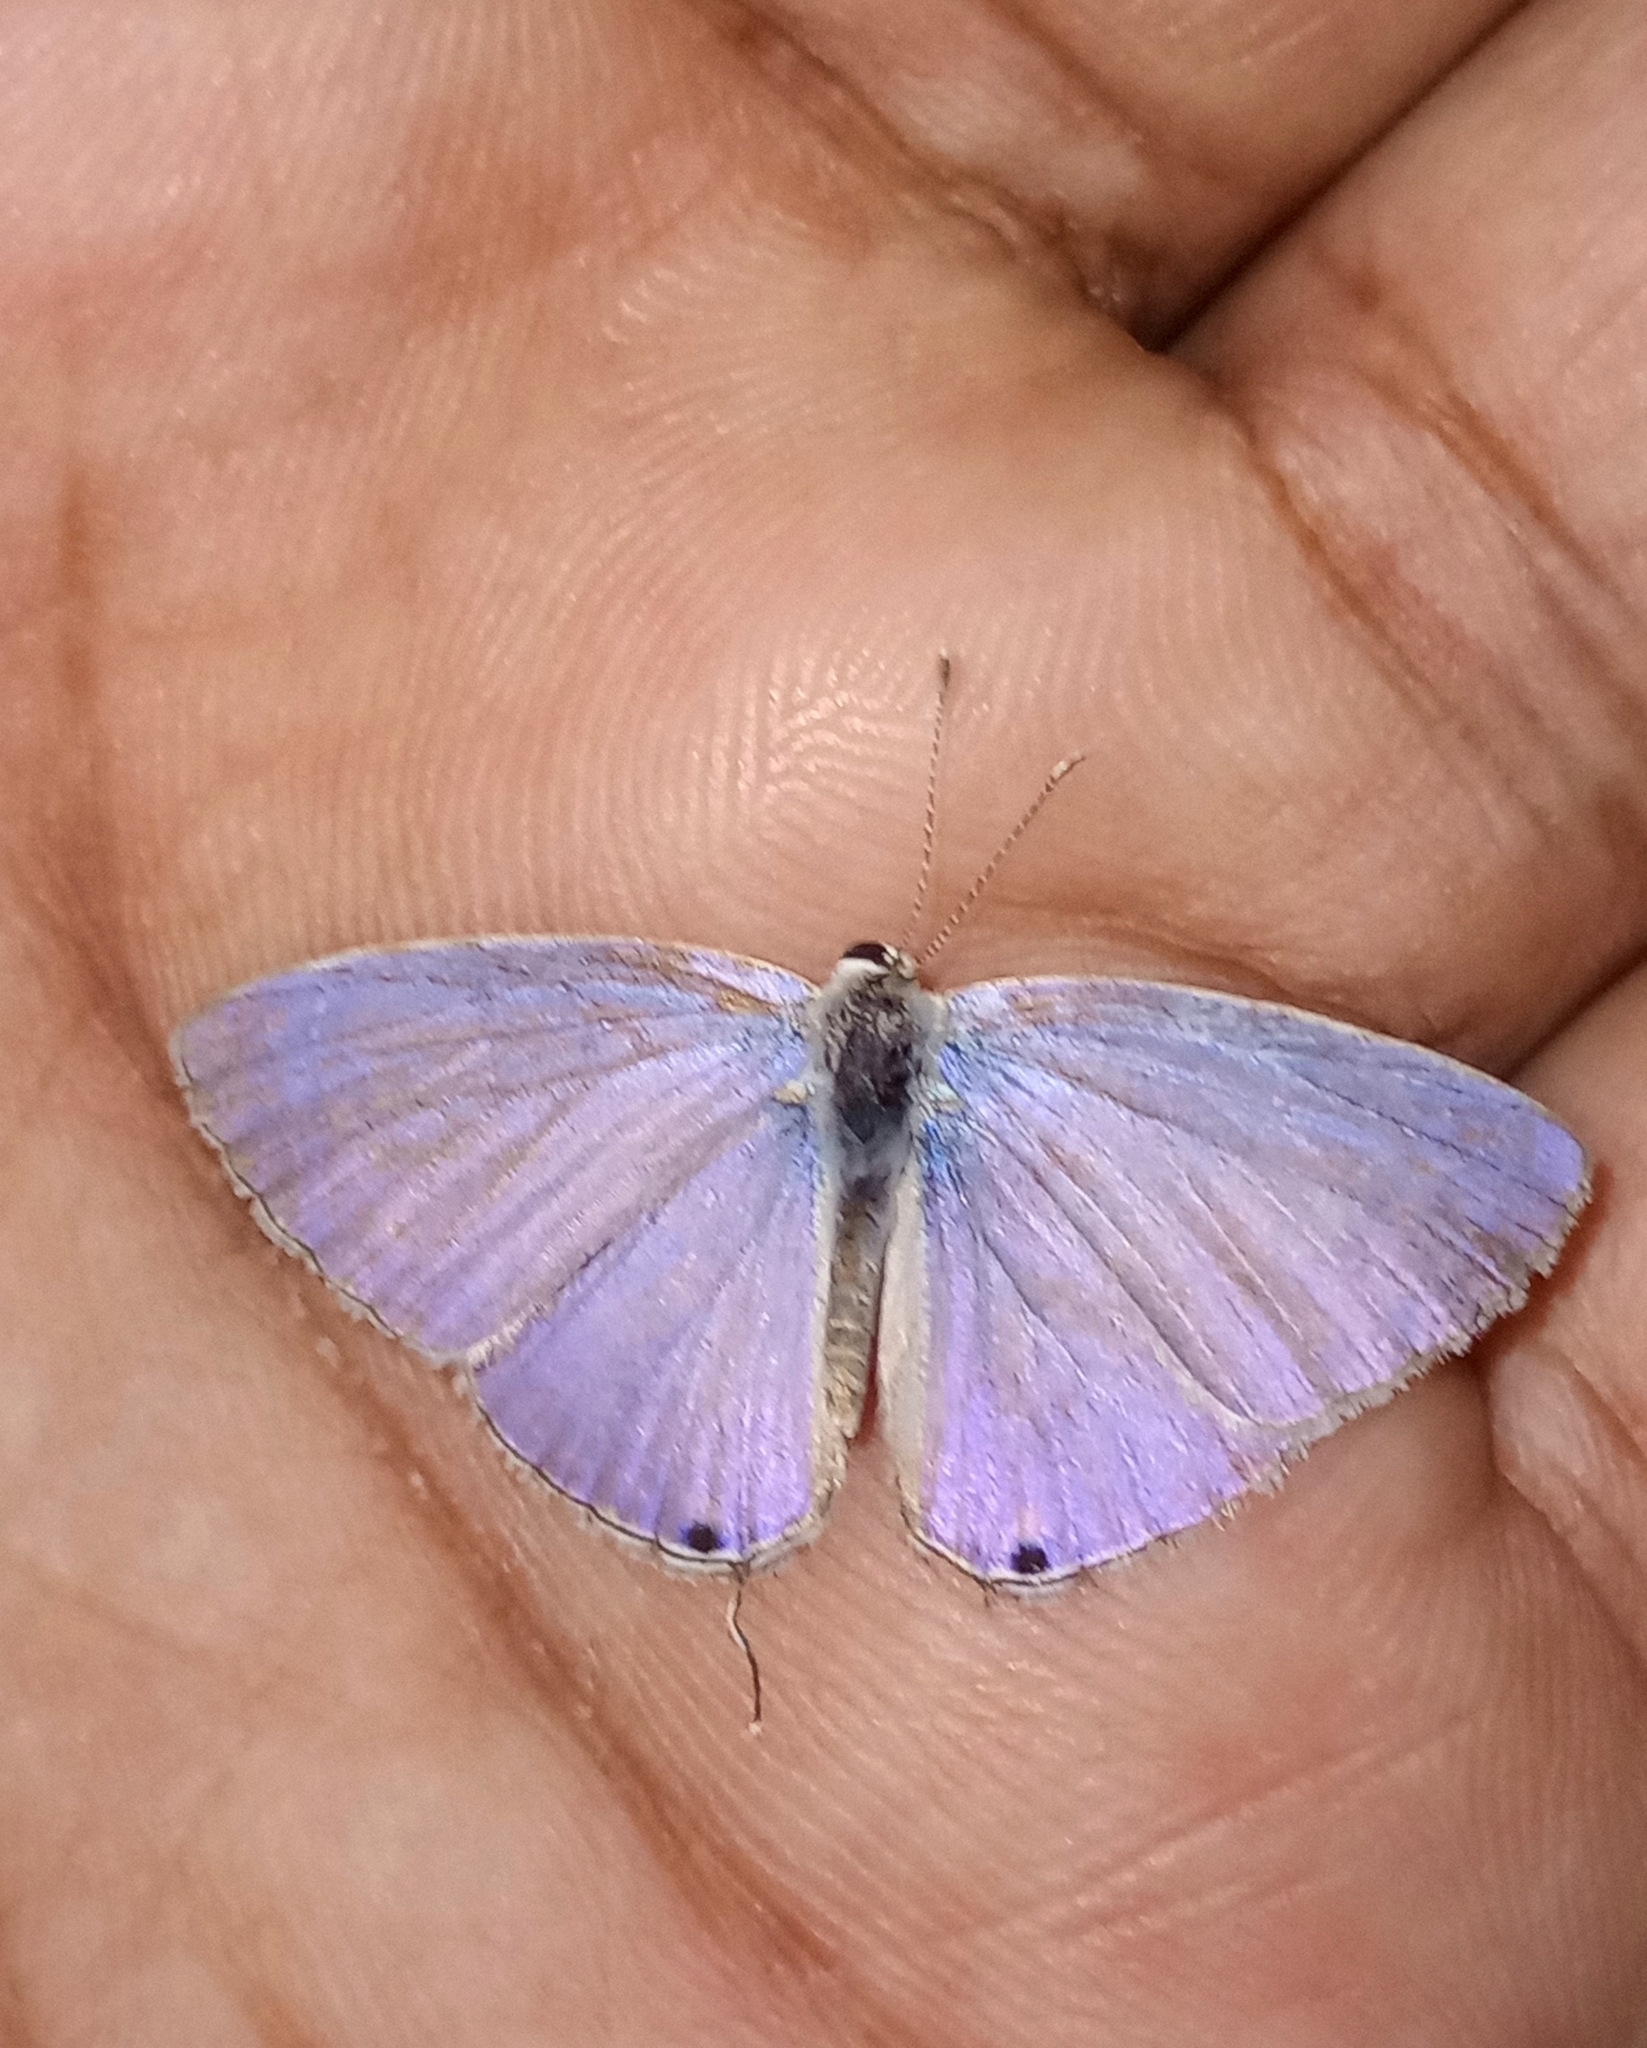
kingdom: Animalia
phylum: Arthropoda
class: Insecta
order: Lepidoptera
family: Lycaenidae
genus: Catochrysops
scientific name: Catochrysops strabo
